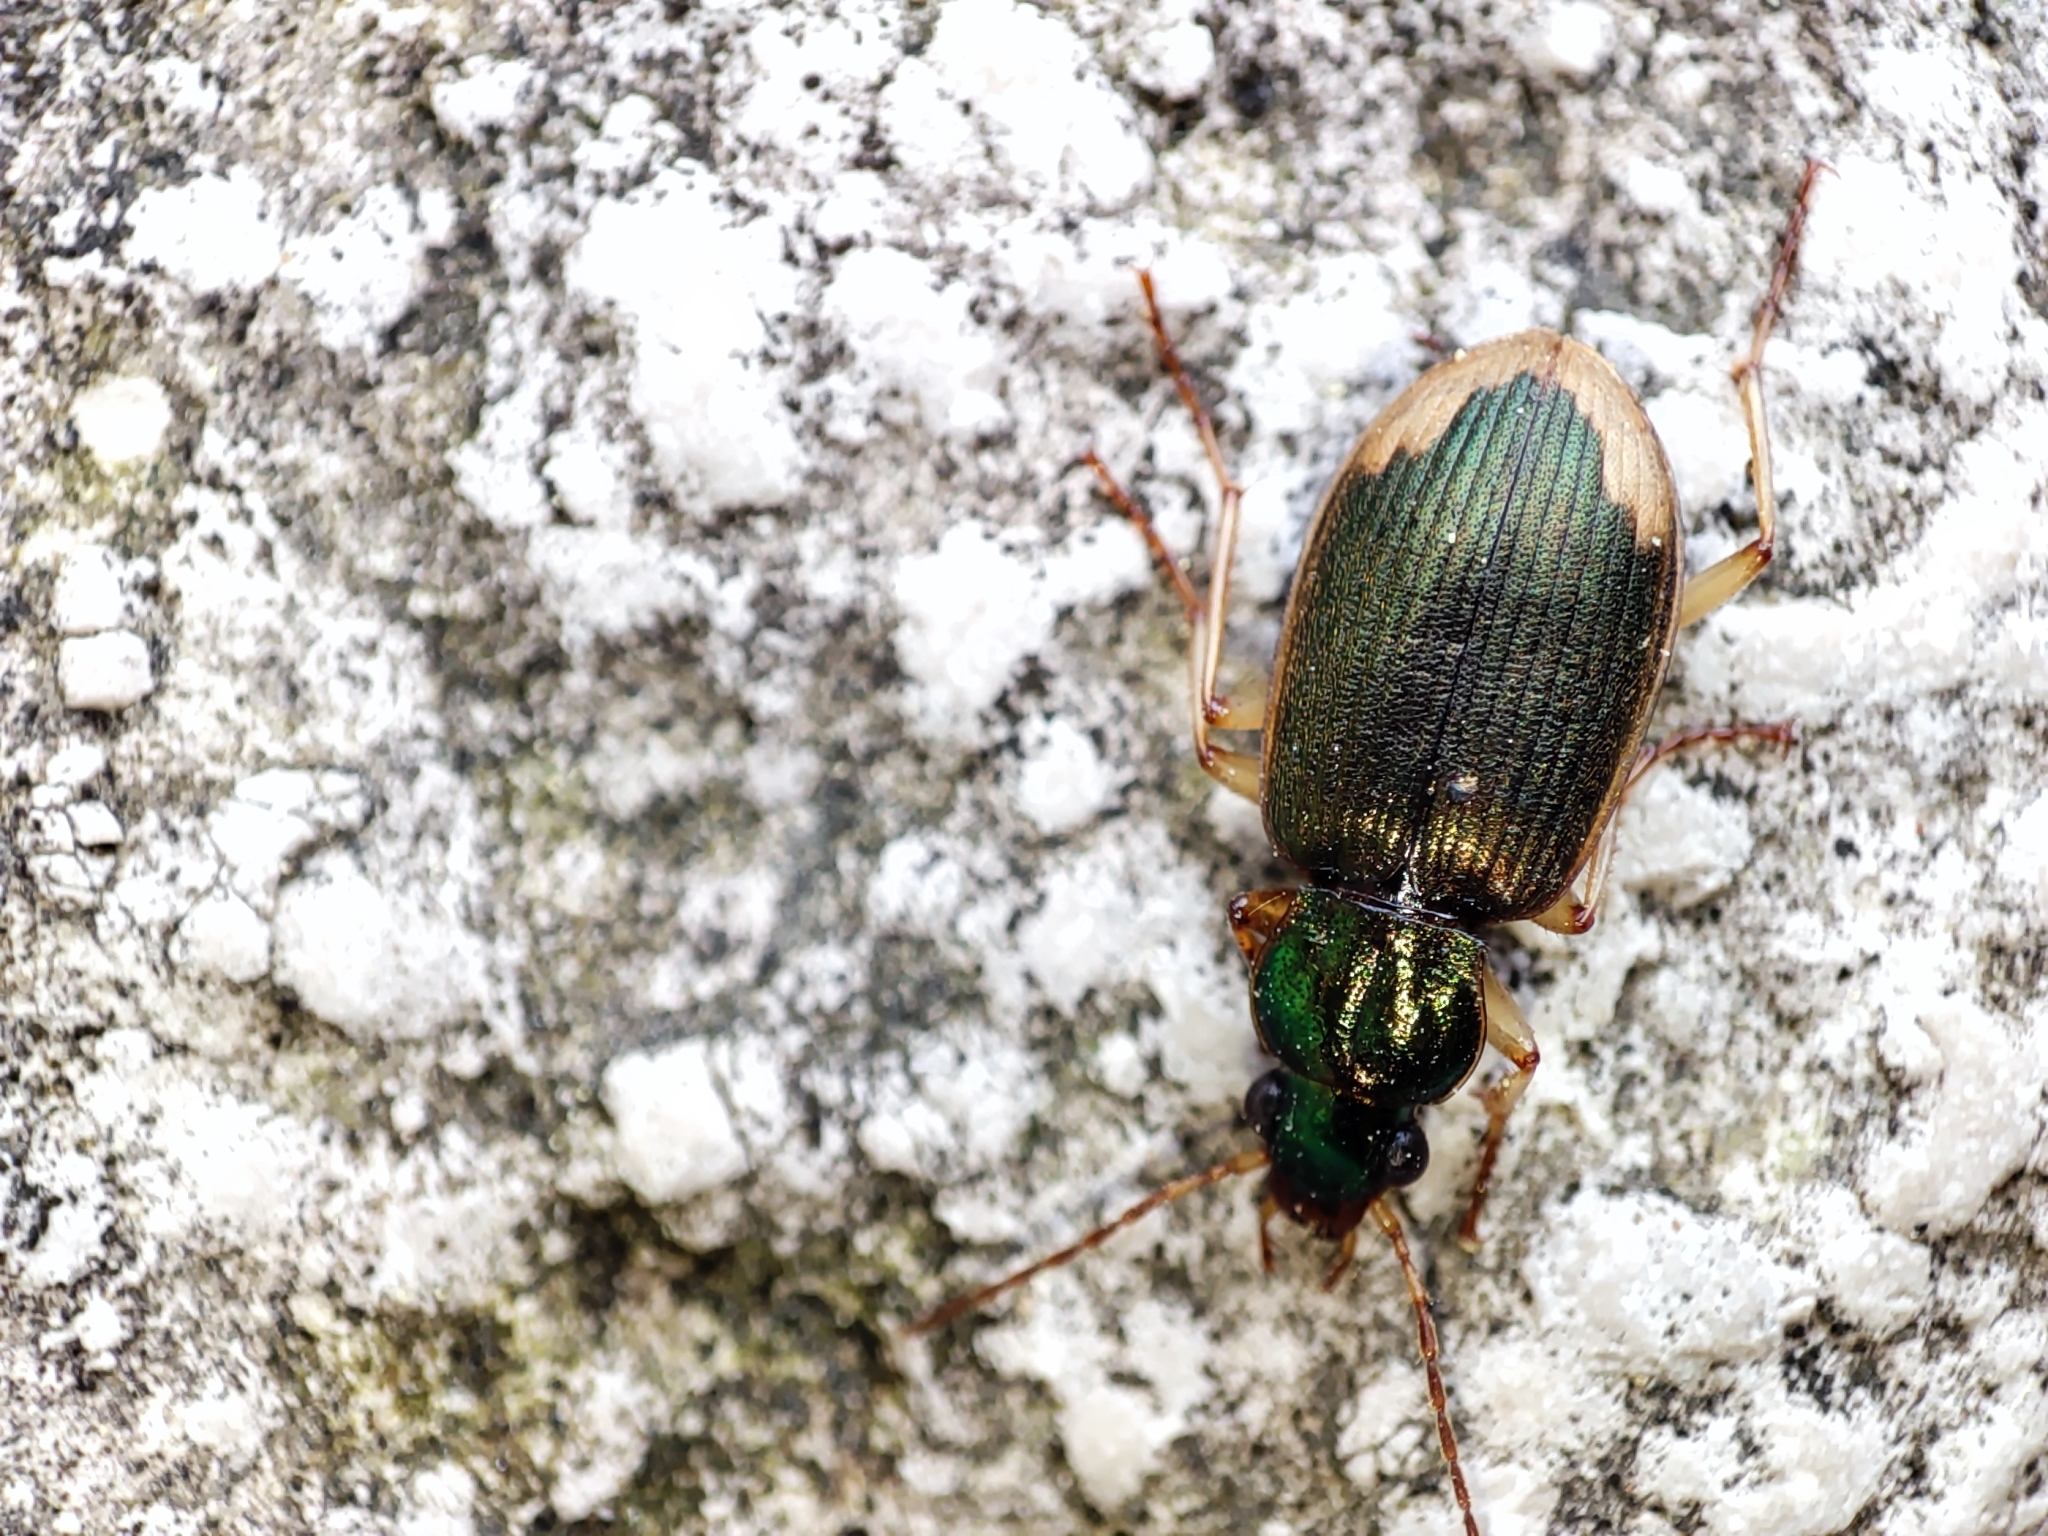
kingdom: Animalia
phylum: Arthropoda
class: Insecta
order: Coleoptera
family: Carabidae
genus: Chlaenius
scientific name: Chlaenius vestitus
